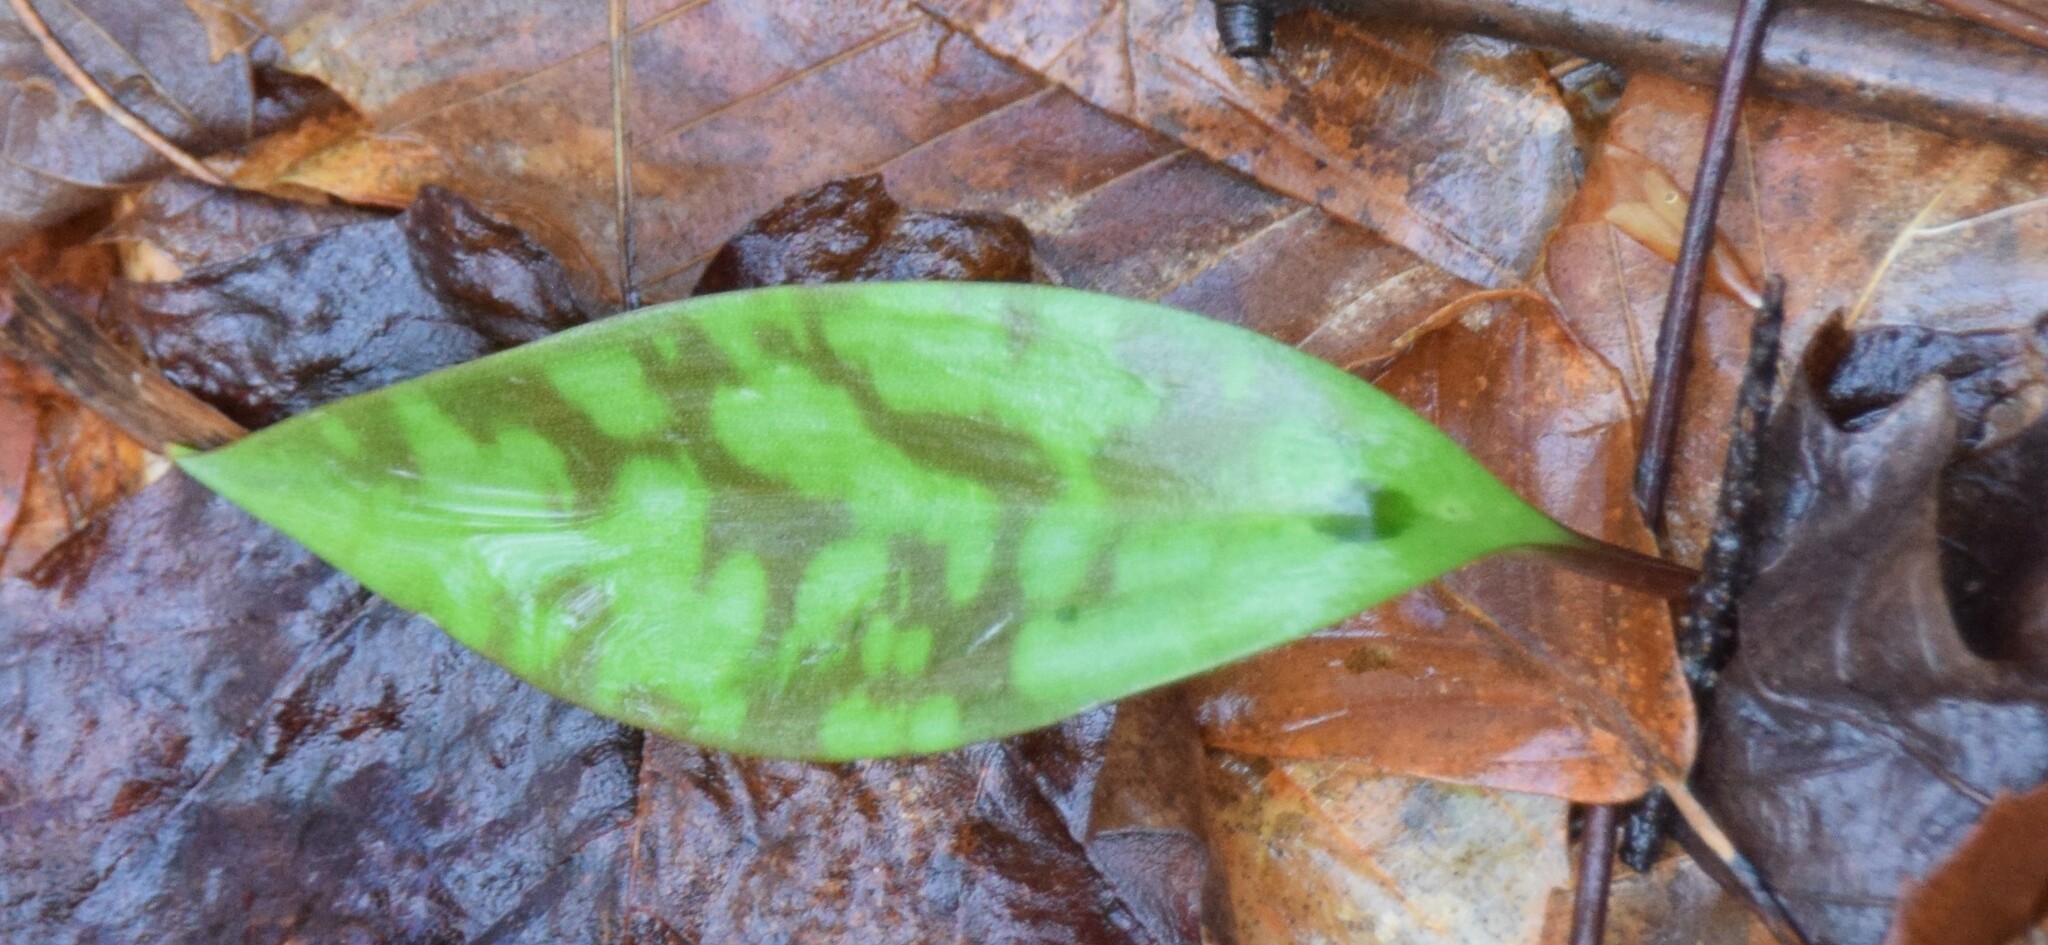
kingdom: Plantae
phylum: Tracheophyta
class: Liliopsida
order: Liliales
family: Liliaceae
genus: Erythronium
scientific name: Erythronium americanum
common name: Yellow adder's-tongue
